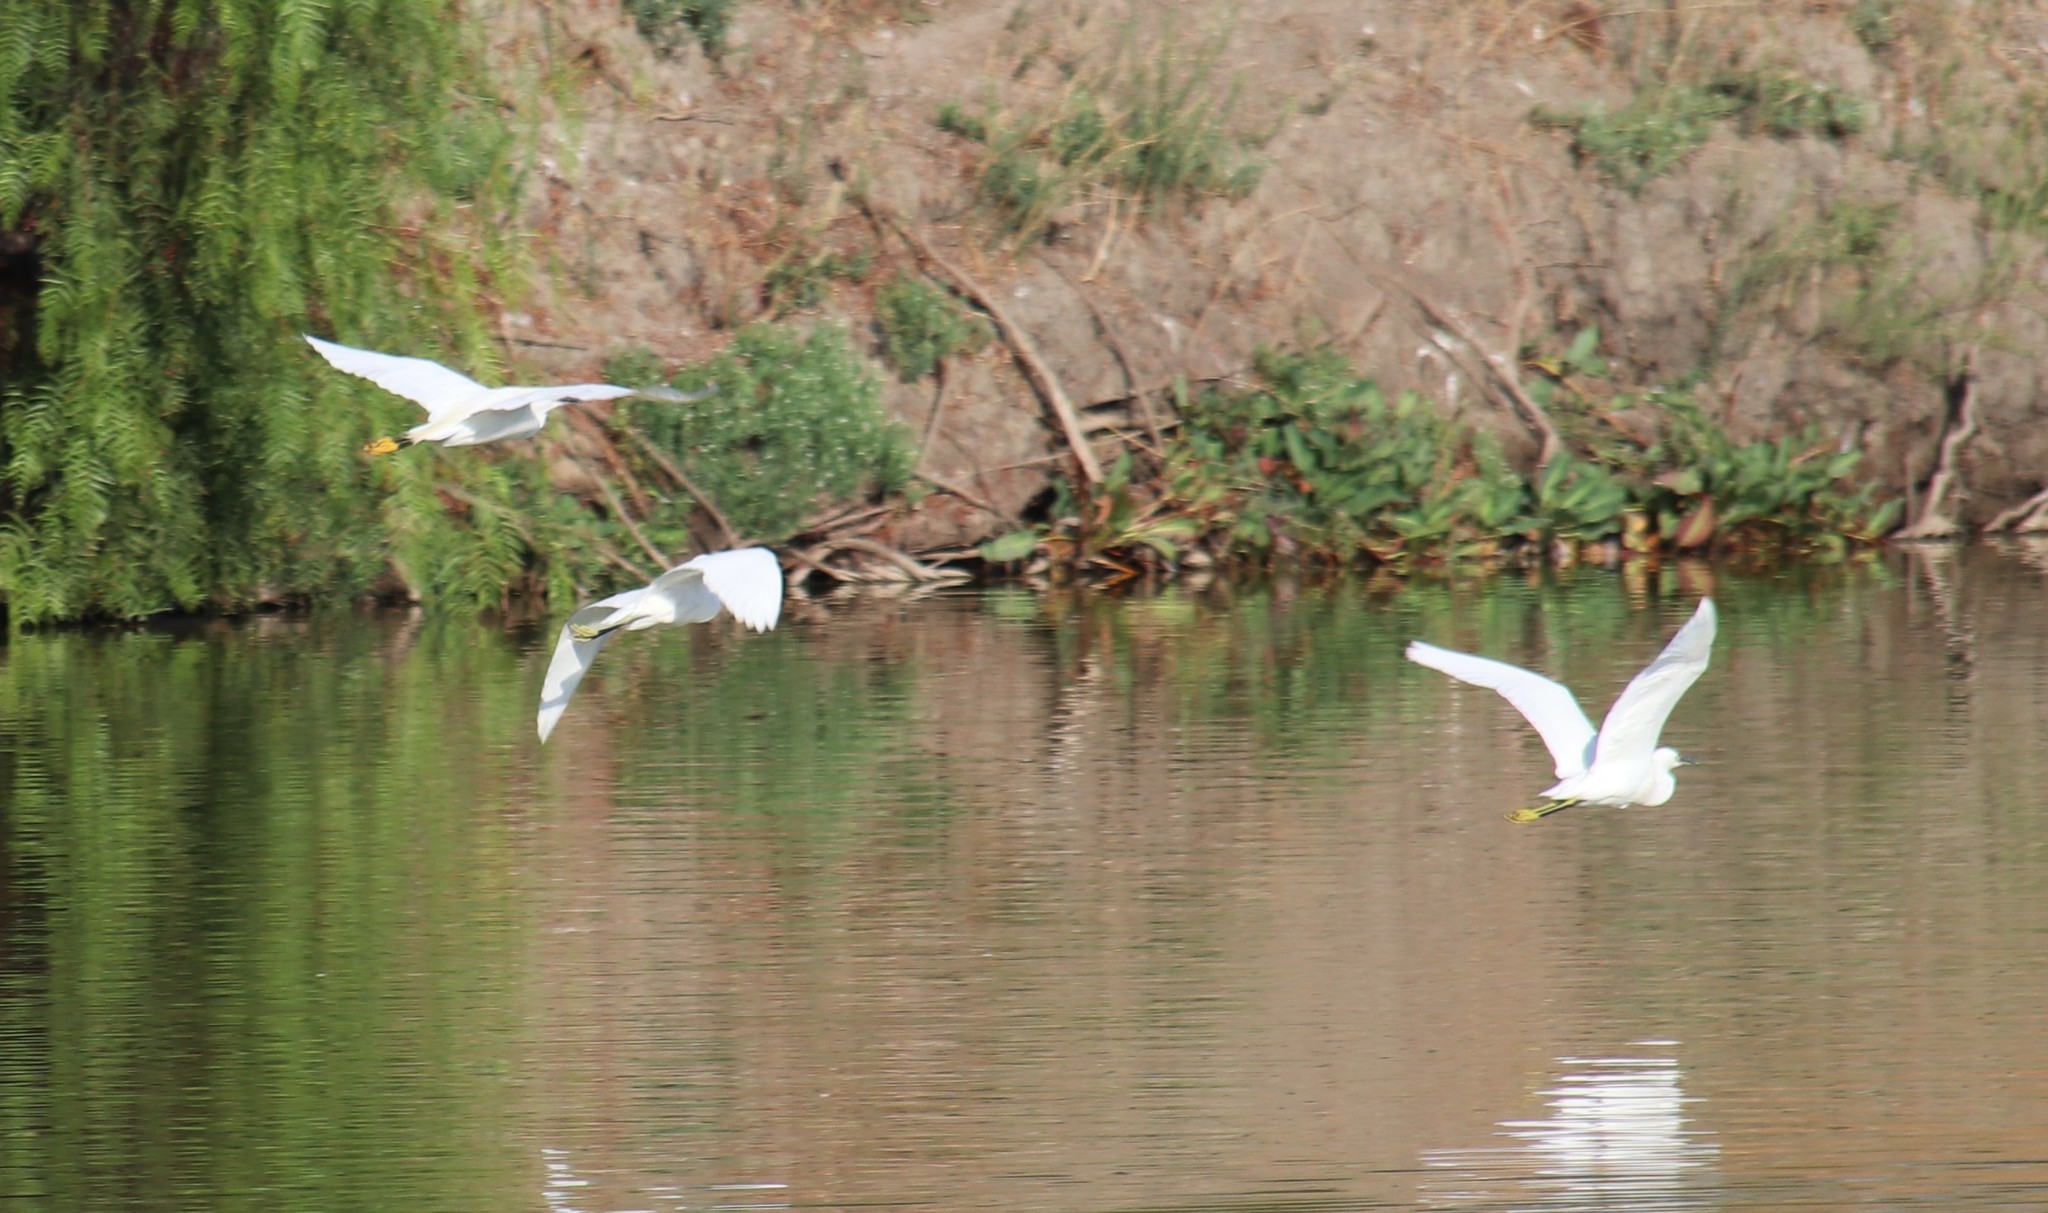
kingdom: Animalia
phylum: Chordata
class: Aves
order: Pelecaniformes
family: Ardeidae
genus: Egretta
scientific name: Egretta thula
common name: Snowy egret
